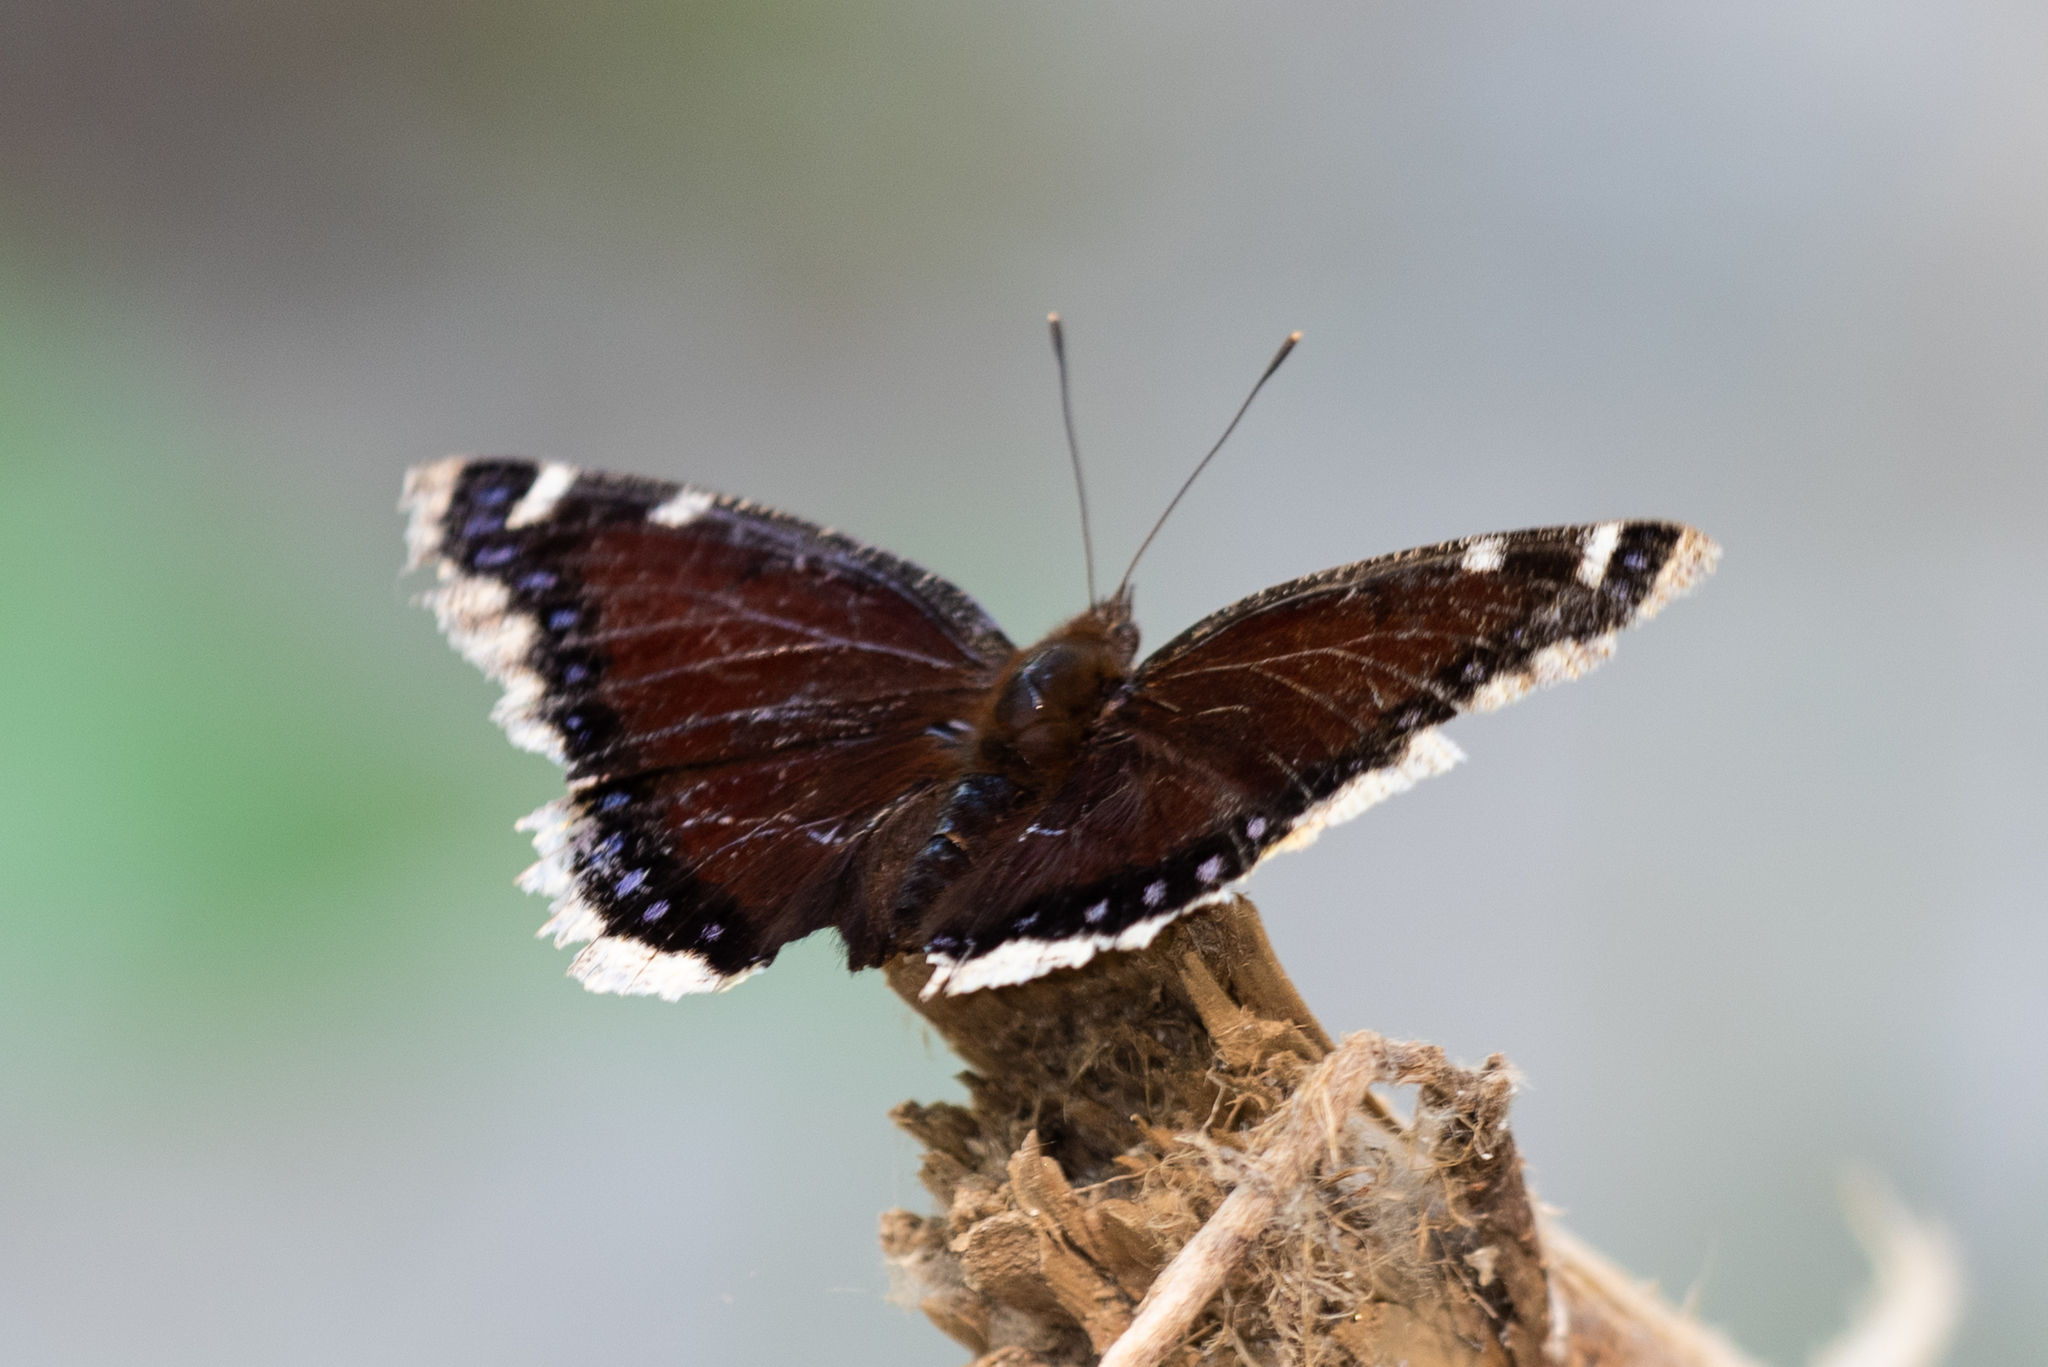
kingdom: Animalia
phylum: Arthropoda
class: Insecta
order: Lepidoptera
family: Nymphalidae
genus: Nymphalis
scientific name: Nymphalis antiopa
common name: Camberwell beauty
